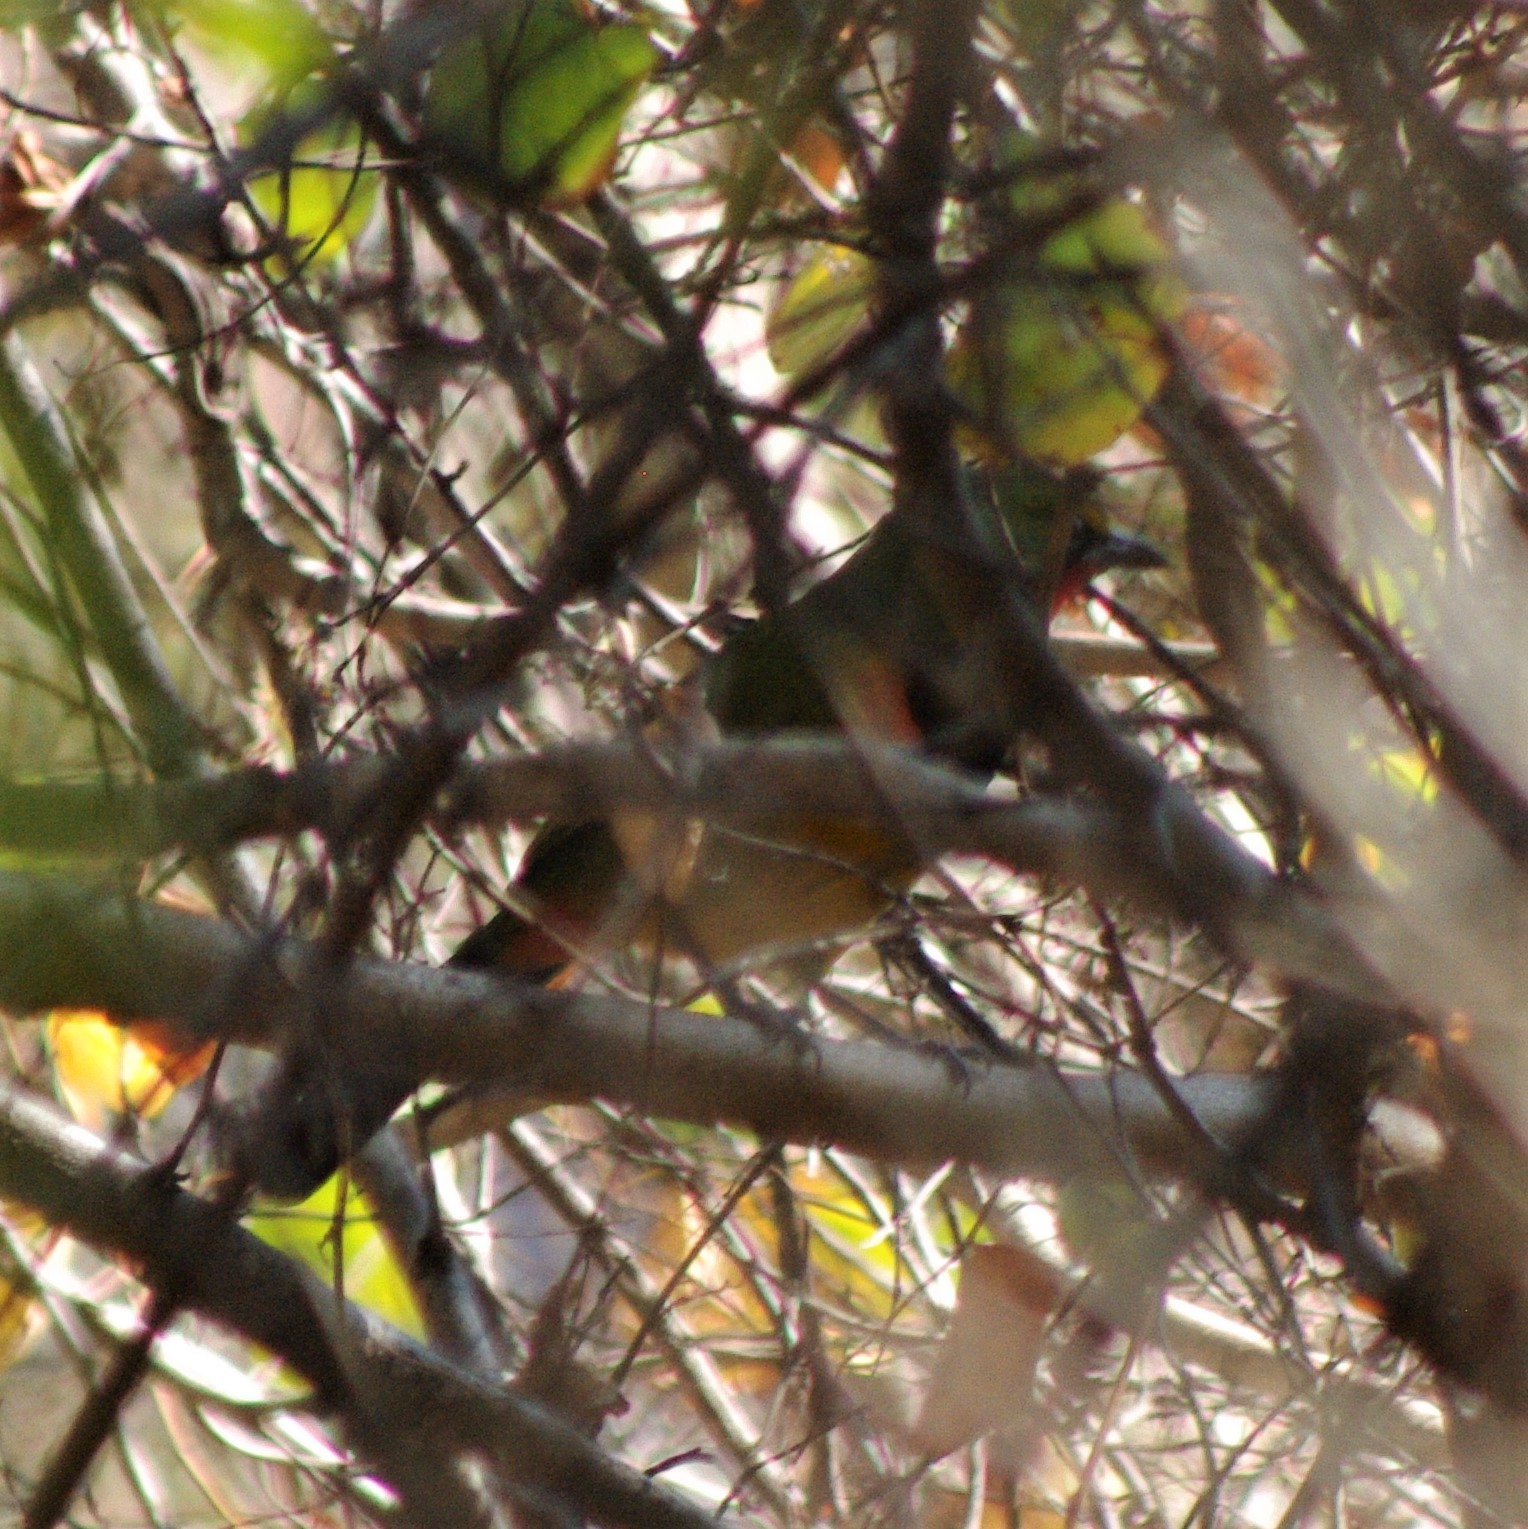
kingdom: Animalia
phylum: Chordata
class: Aves
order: Passeriformes
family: Malaconotidae
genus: Telophorus
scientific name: Telophorus quadricolor
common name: Four-colored bushshrike
